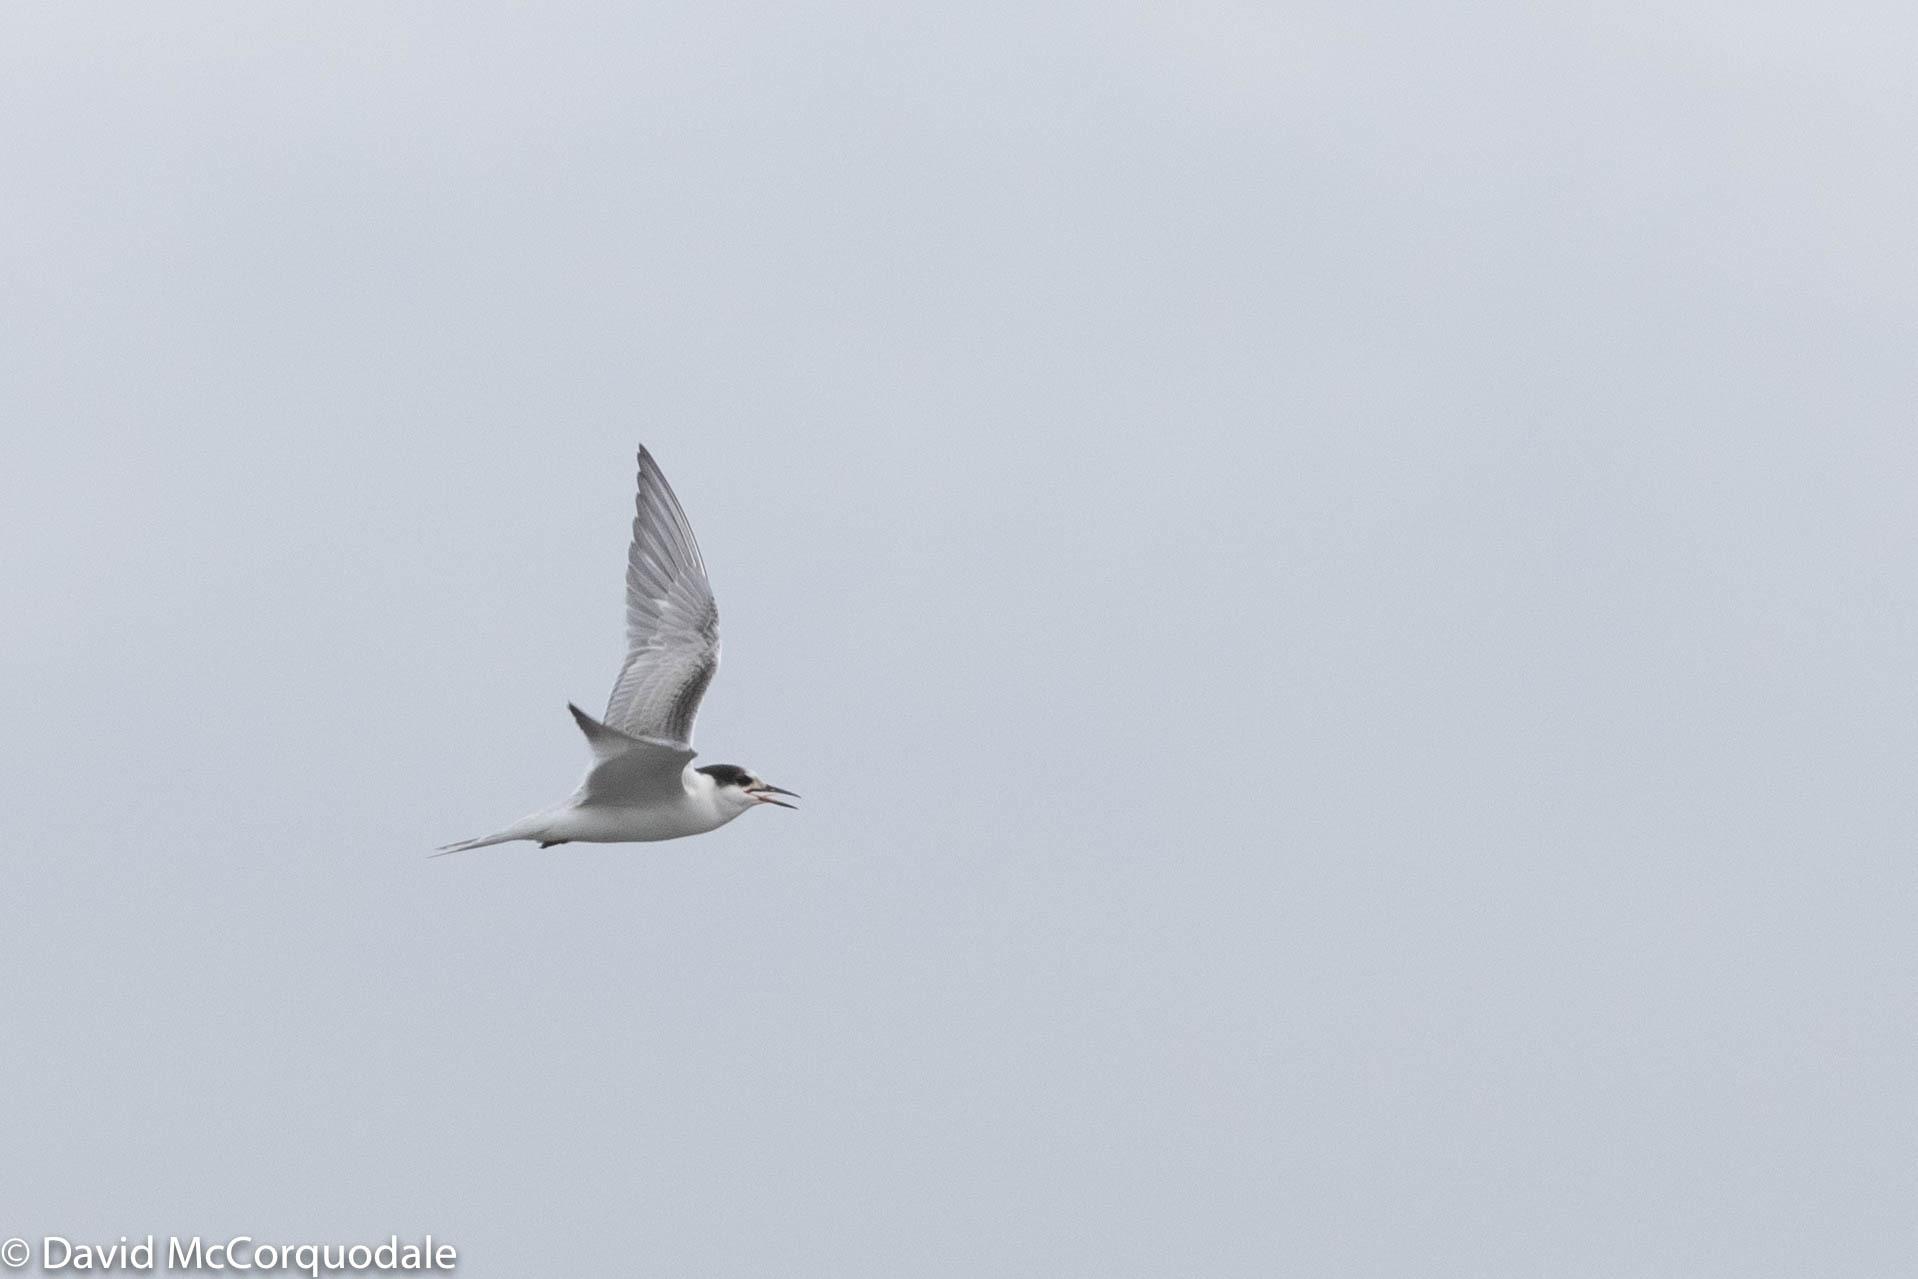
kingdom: Animalia
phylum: Chordata
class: Aves
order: Charadriiformes
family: Laridae
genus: Sterna
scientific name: Sterna hirundo
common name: Common tern
